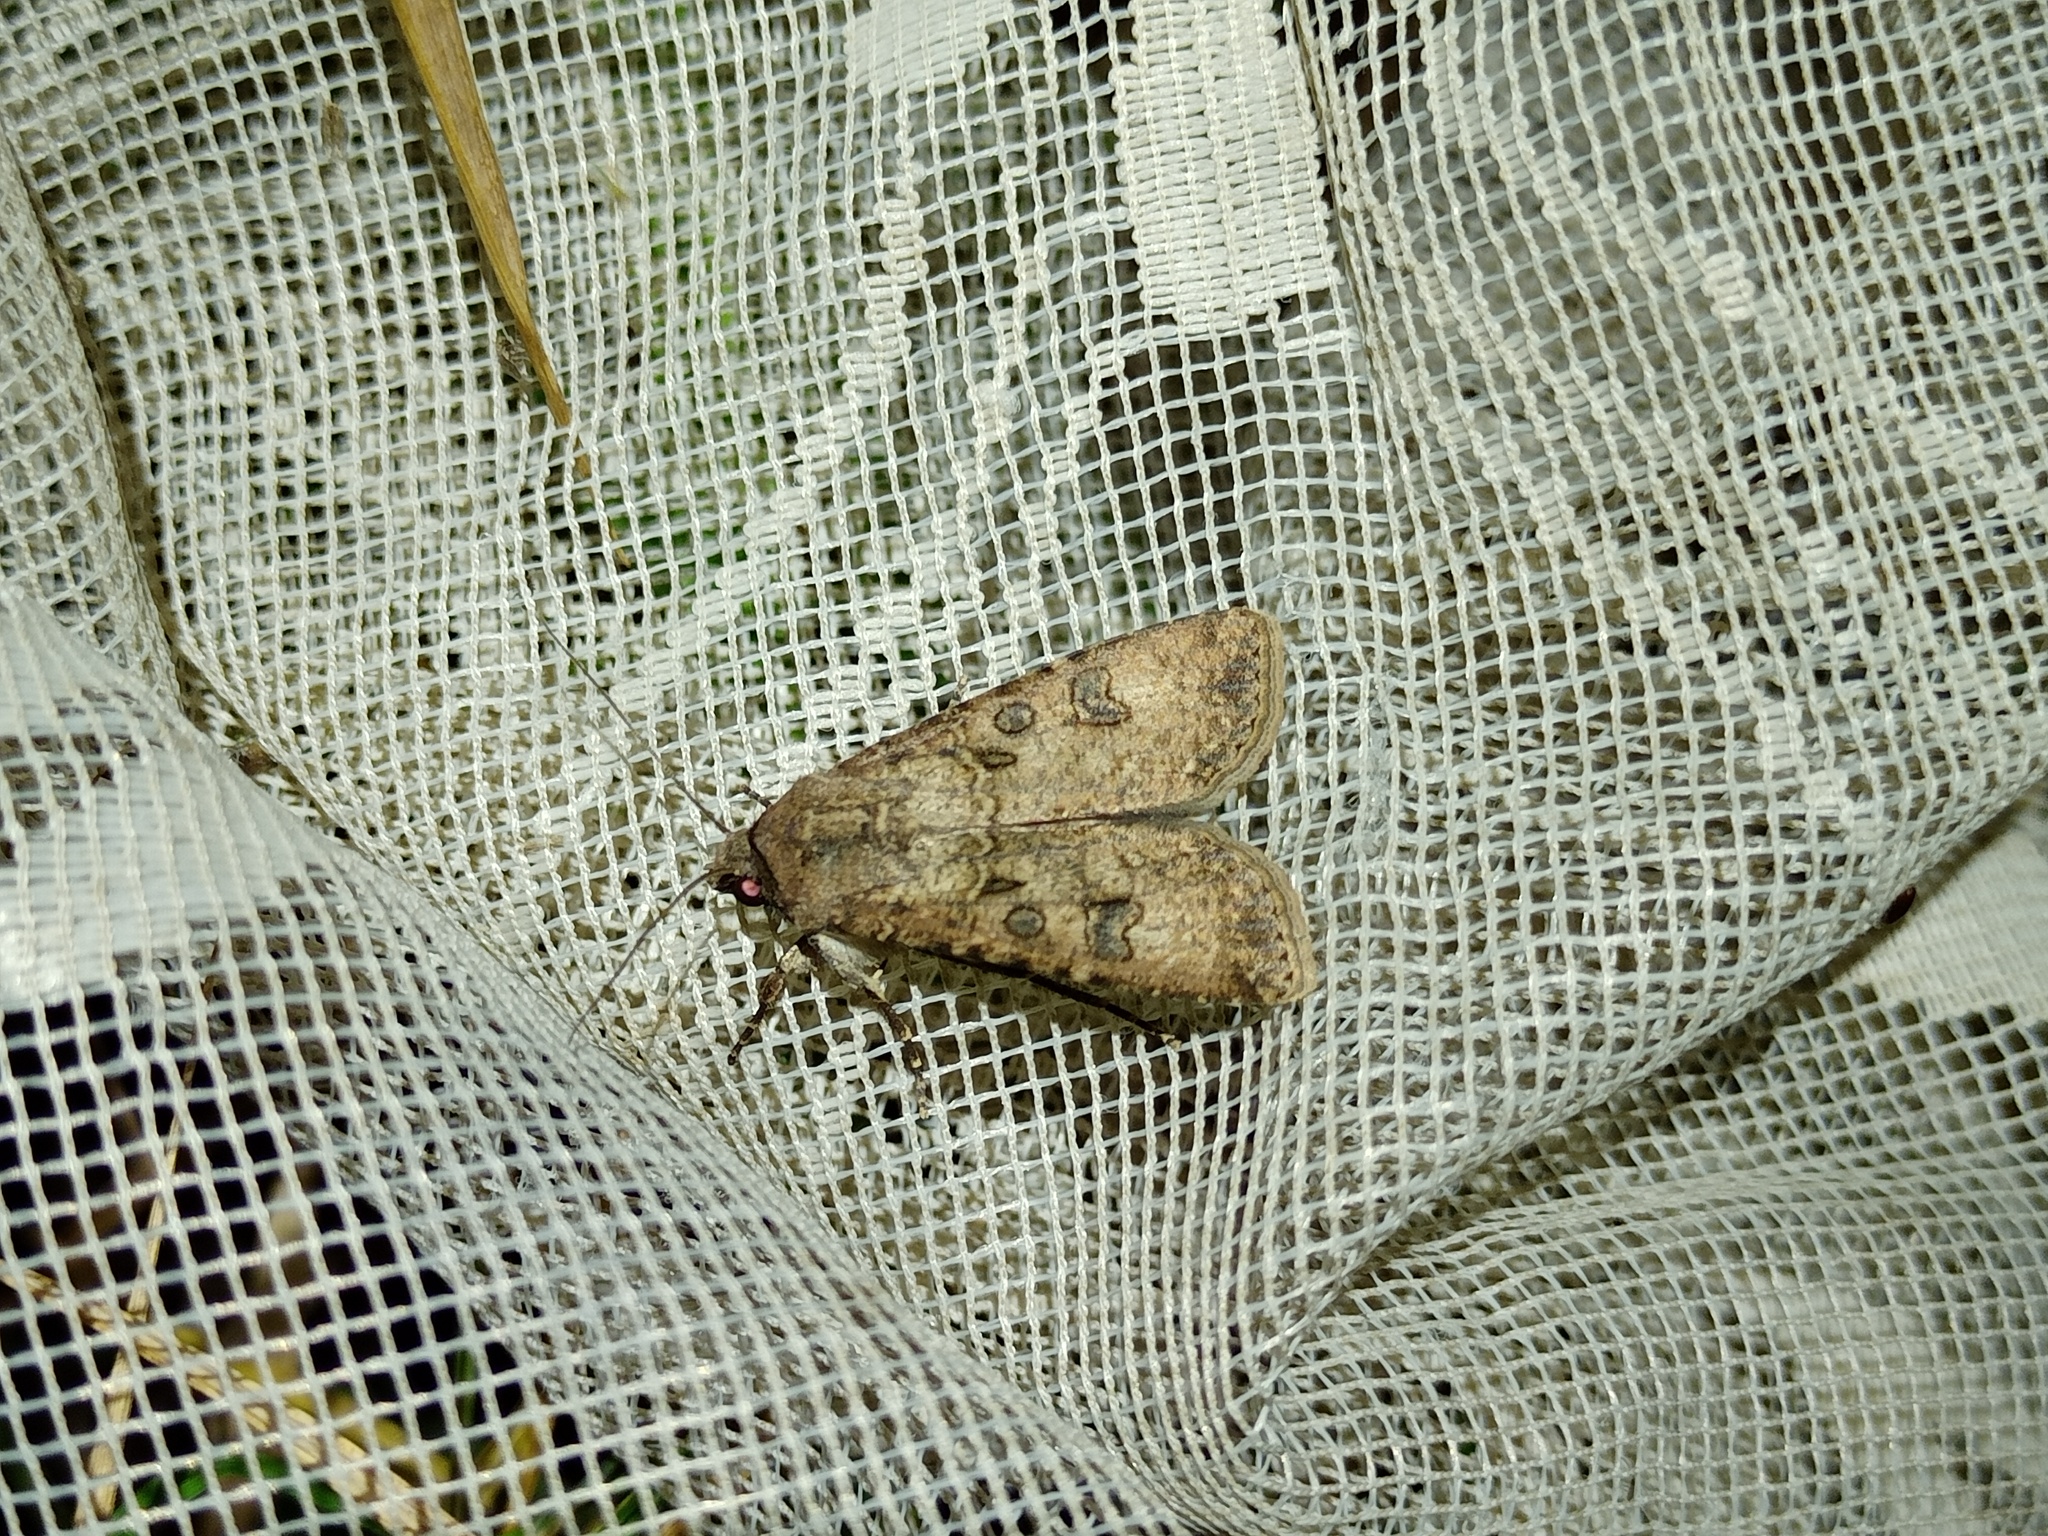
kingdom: Animalia
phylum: Arthropoda
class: Insecta
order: Lepidoptera
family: Noctuidae
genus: Agrotis
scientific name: Agrotis segetum
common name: Turnip moth
